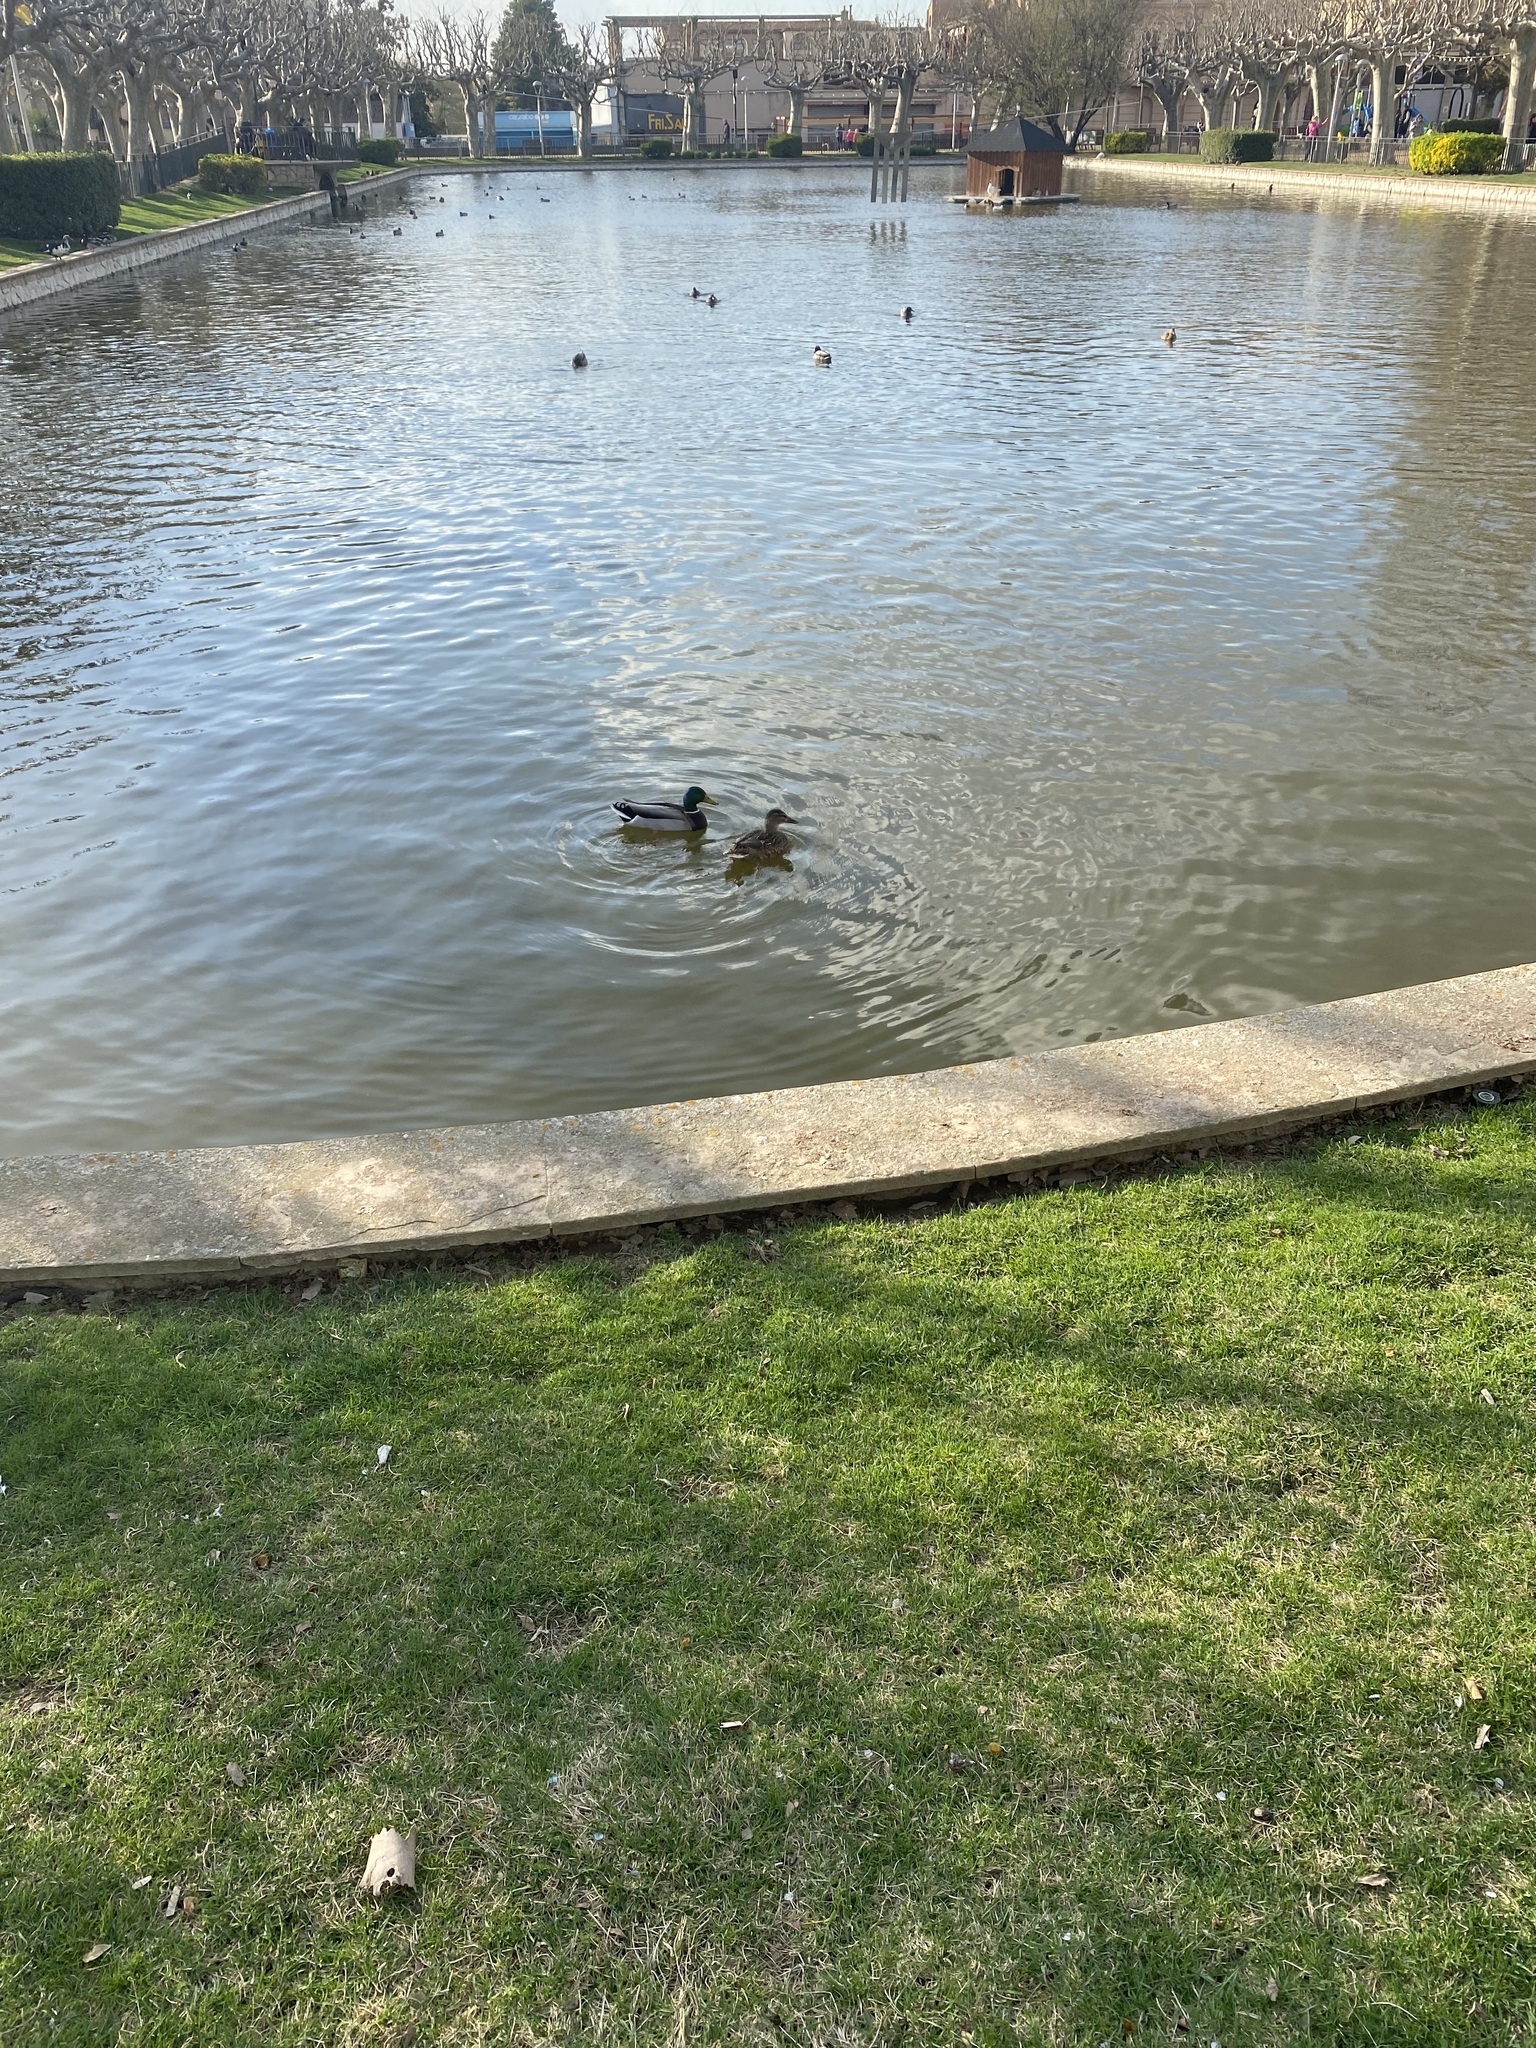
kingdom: Animalia
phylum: Chordata
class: Aves
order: Anseriformes
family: Anatidae
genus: Anas
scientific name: Anas platyrhynchos
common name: Mallard
